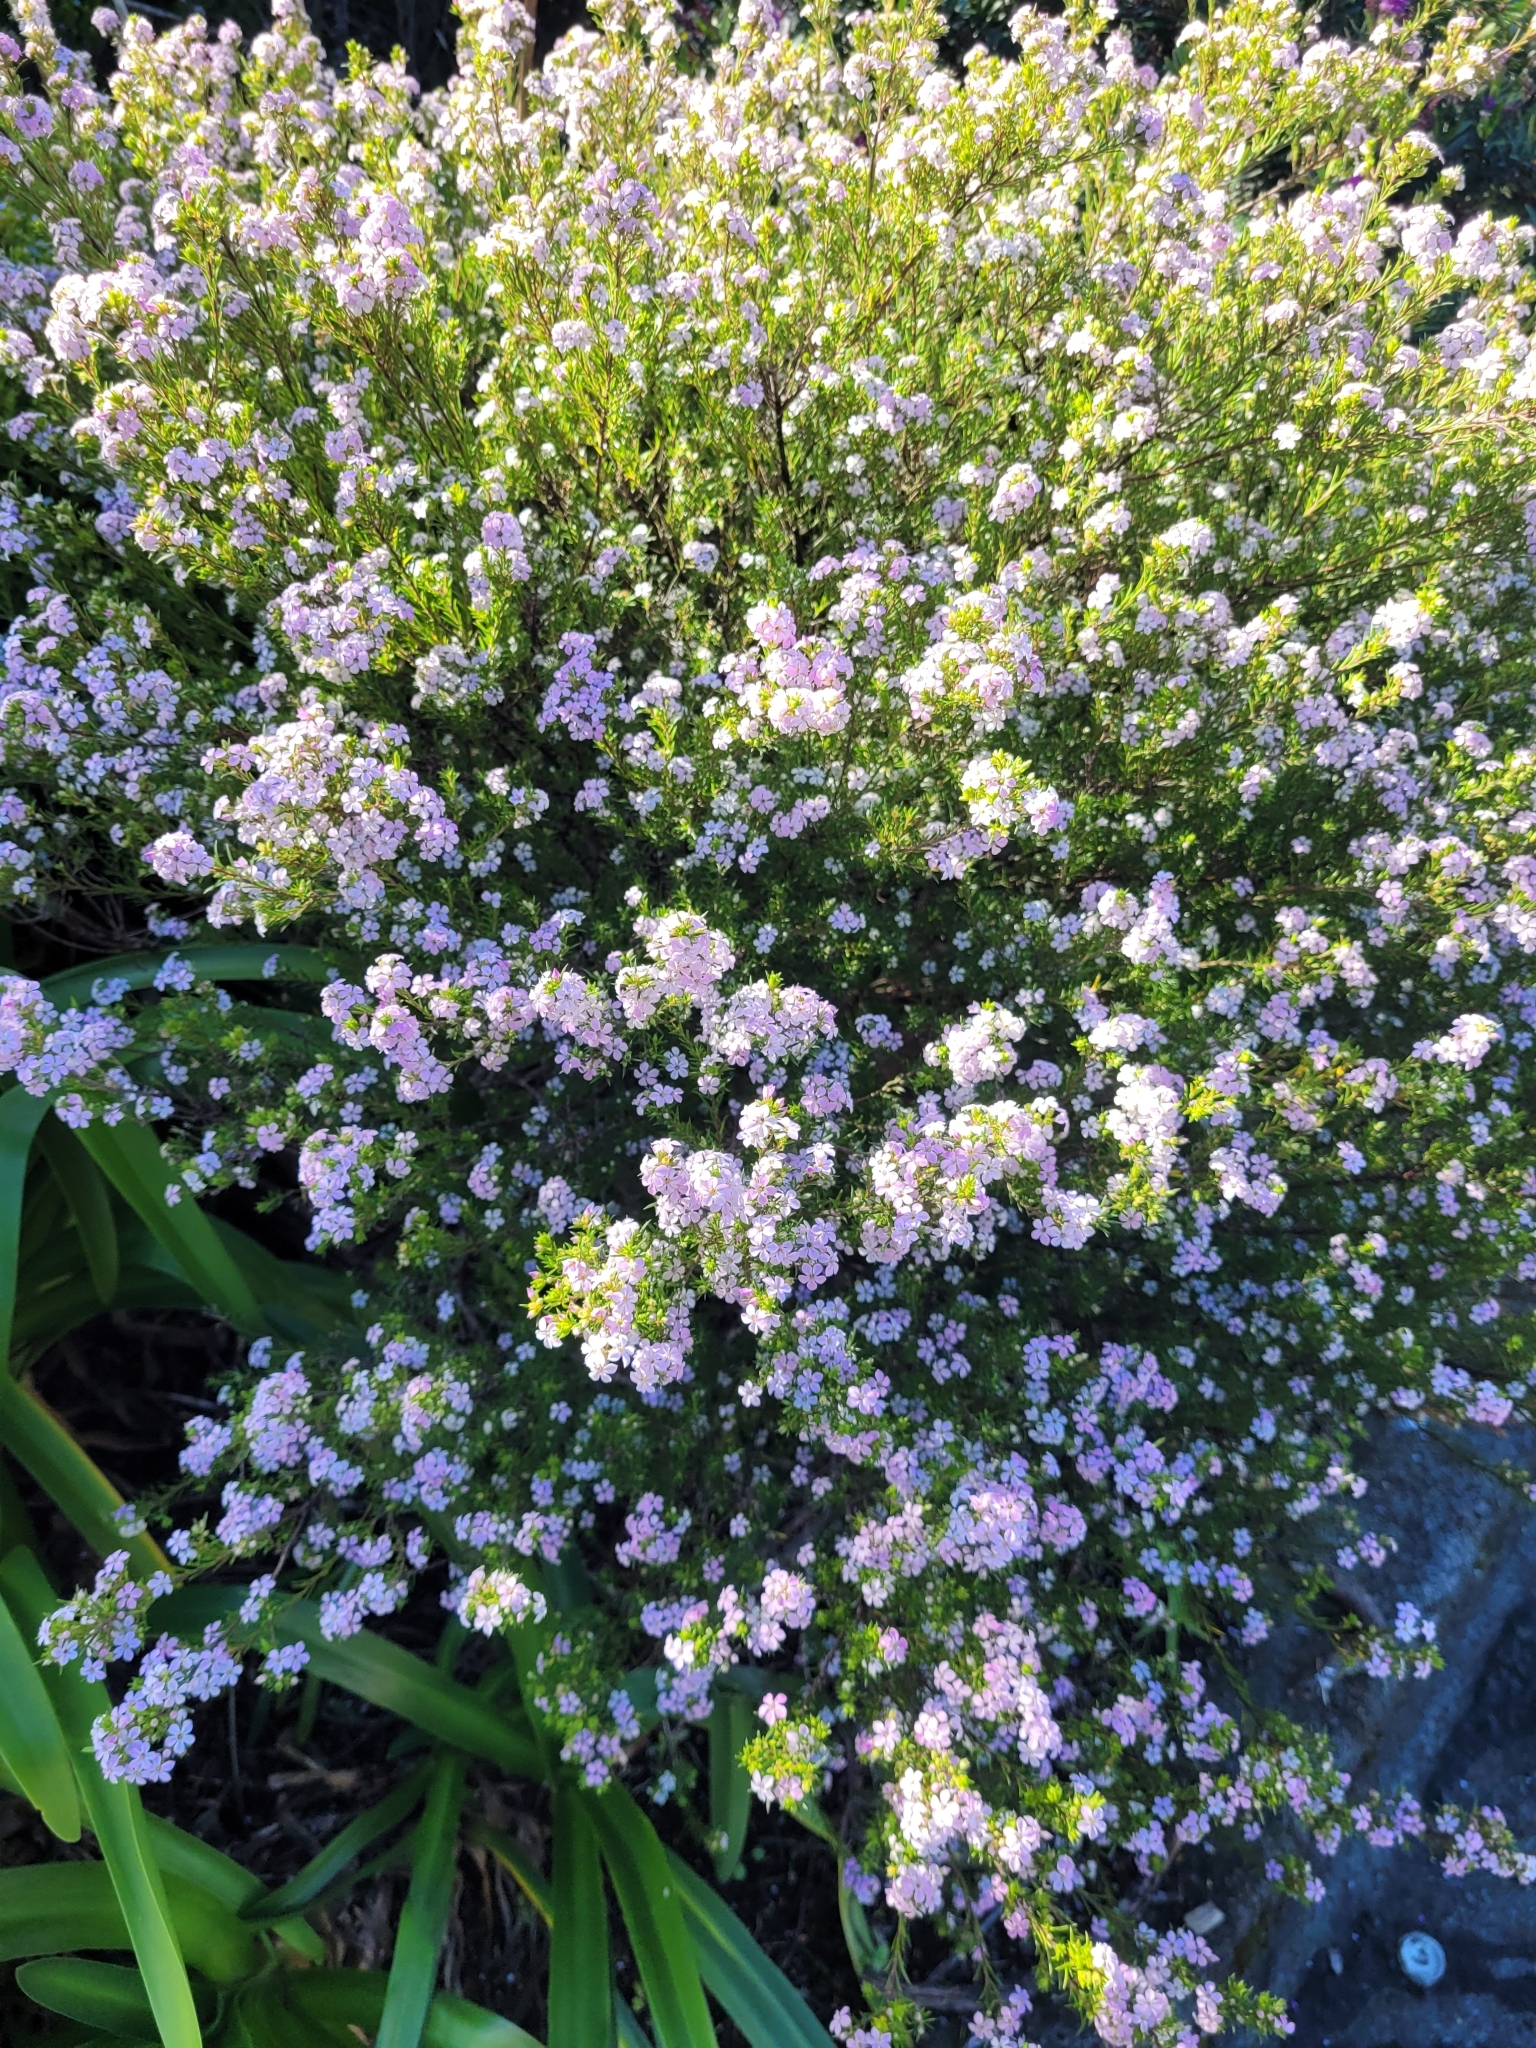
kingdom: Plantae
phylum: Tracheophyta
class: Magnoliopsida
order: Sapindales
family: Rutaceae
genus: Coleonema
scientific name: Coleonema pulchellum
